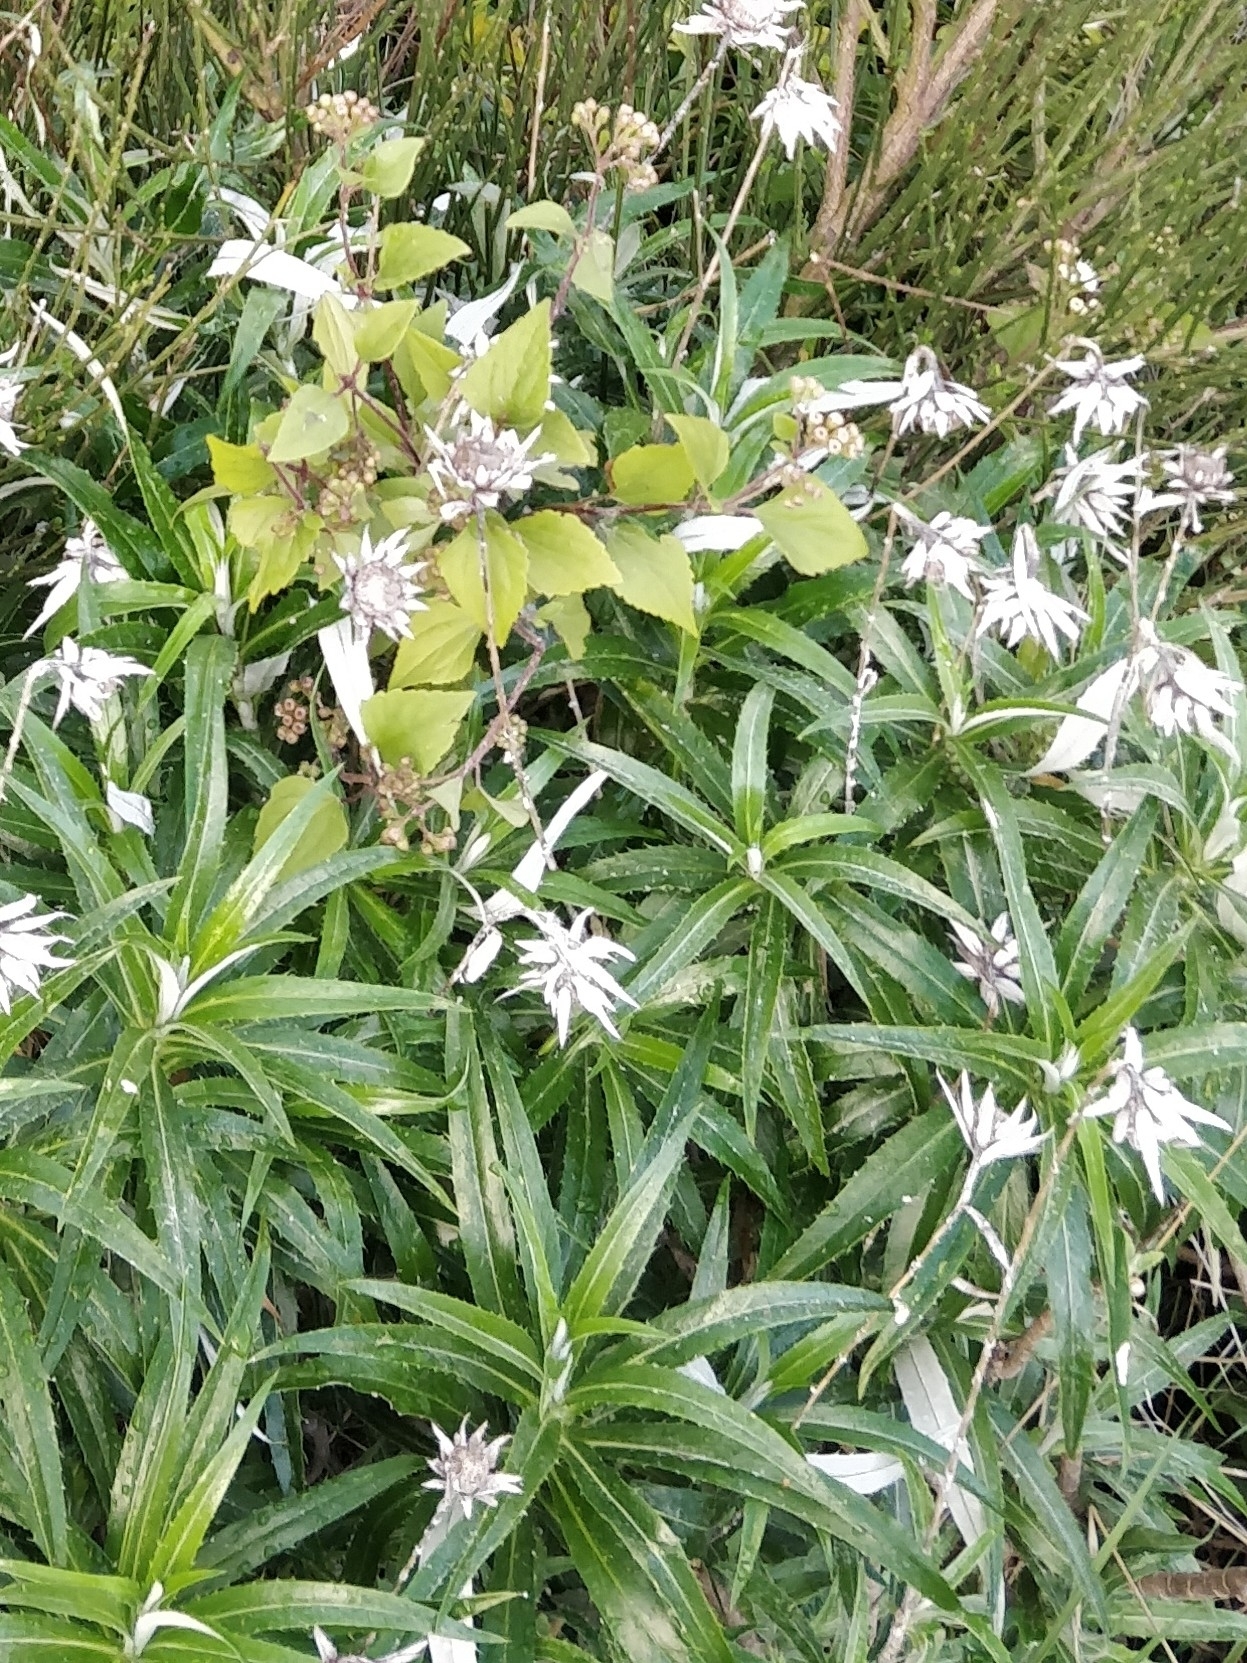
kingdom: Plantae
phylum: Tracheophyta
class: Magnoliopsida
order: Asterales
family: Asteraceae
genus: Carlina
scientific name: Carlina salicifolia
